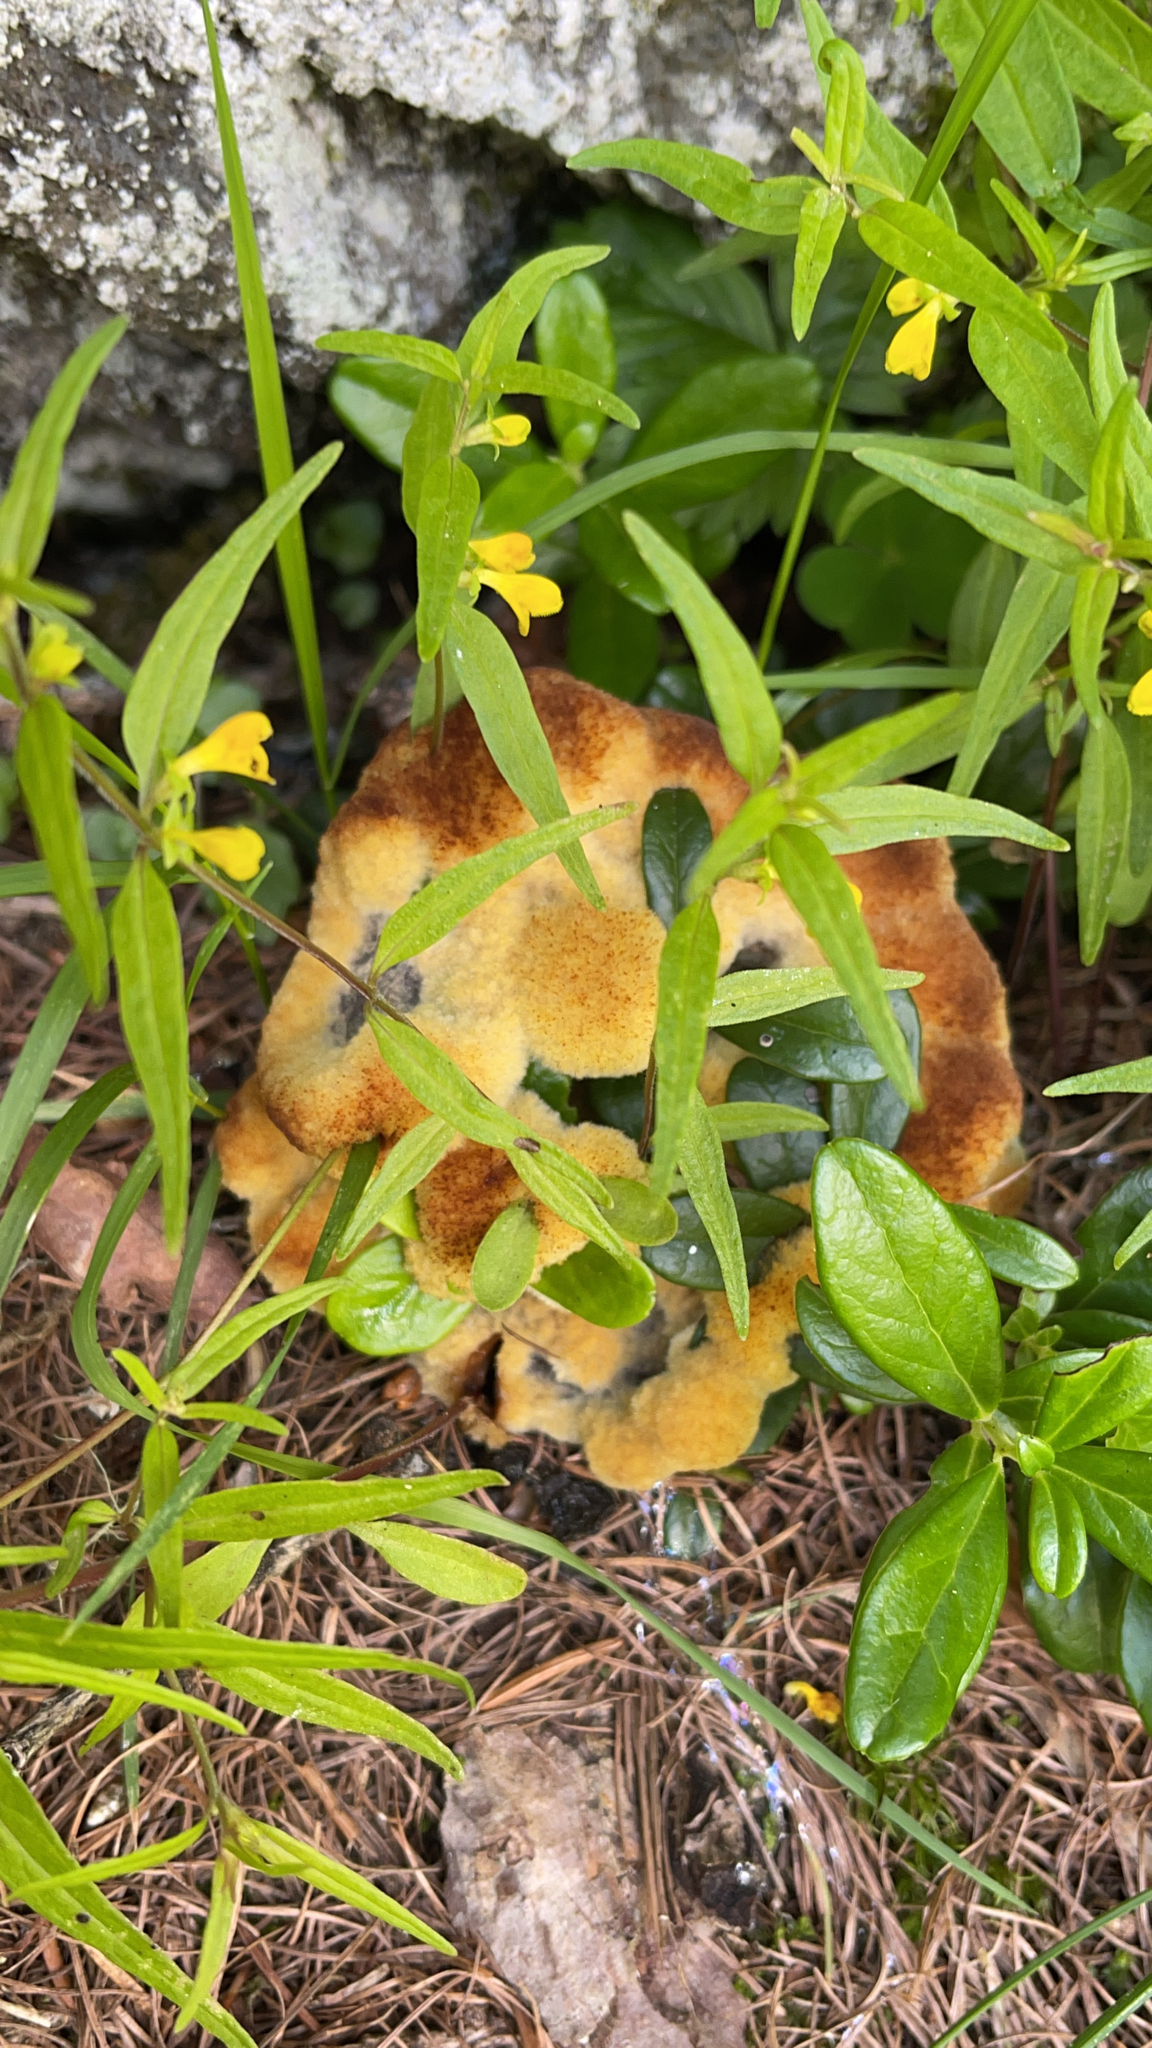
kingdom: Fungi
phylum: Basidiomycota
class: Agaricomycetes
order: Polyporales
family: Laetiporaceae
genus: Phaeolus
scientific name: Phaeolus schweinitzii
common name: Dyer's mazegill
